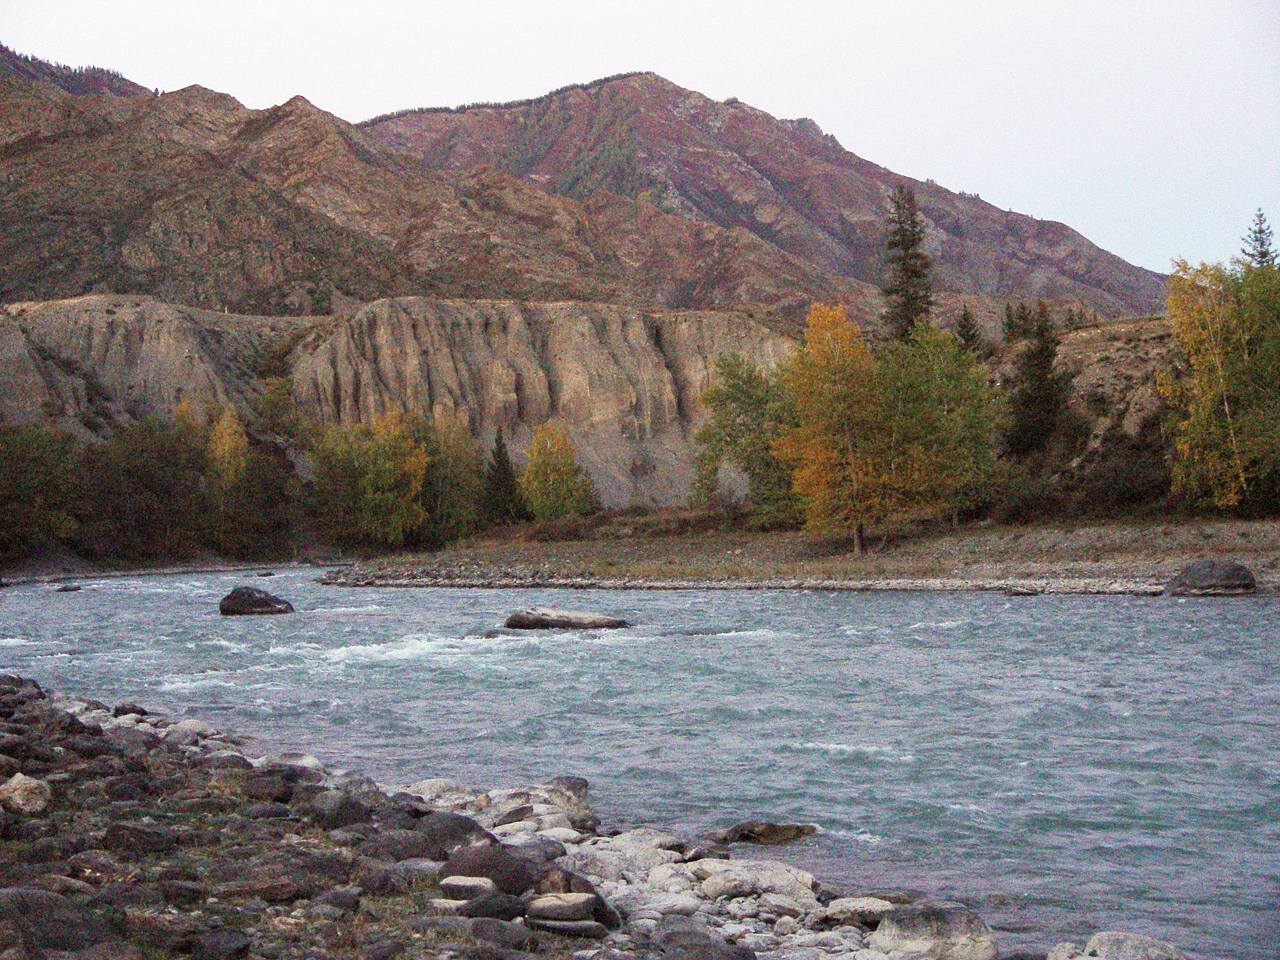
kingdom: Plantae
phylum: Tracheophyta
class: Pinopsida
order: Pinales
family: Pinaceae
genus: Picea
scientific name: Picea obovata
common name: Siberian spruce
